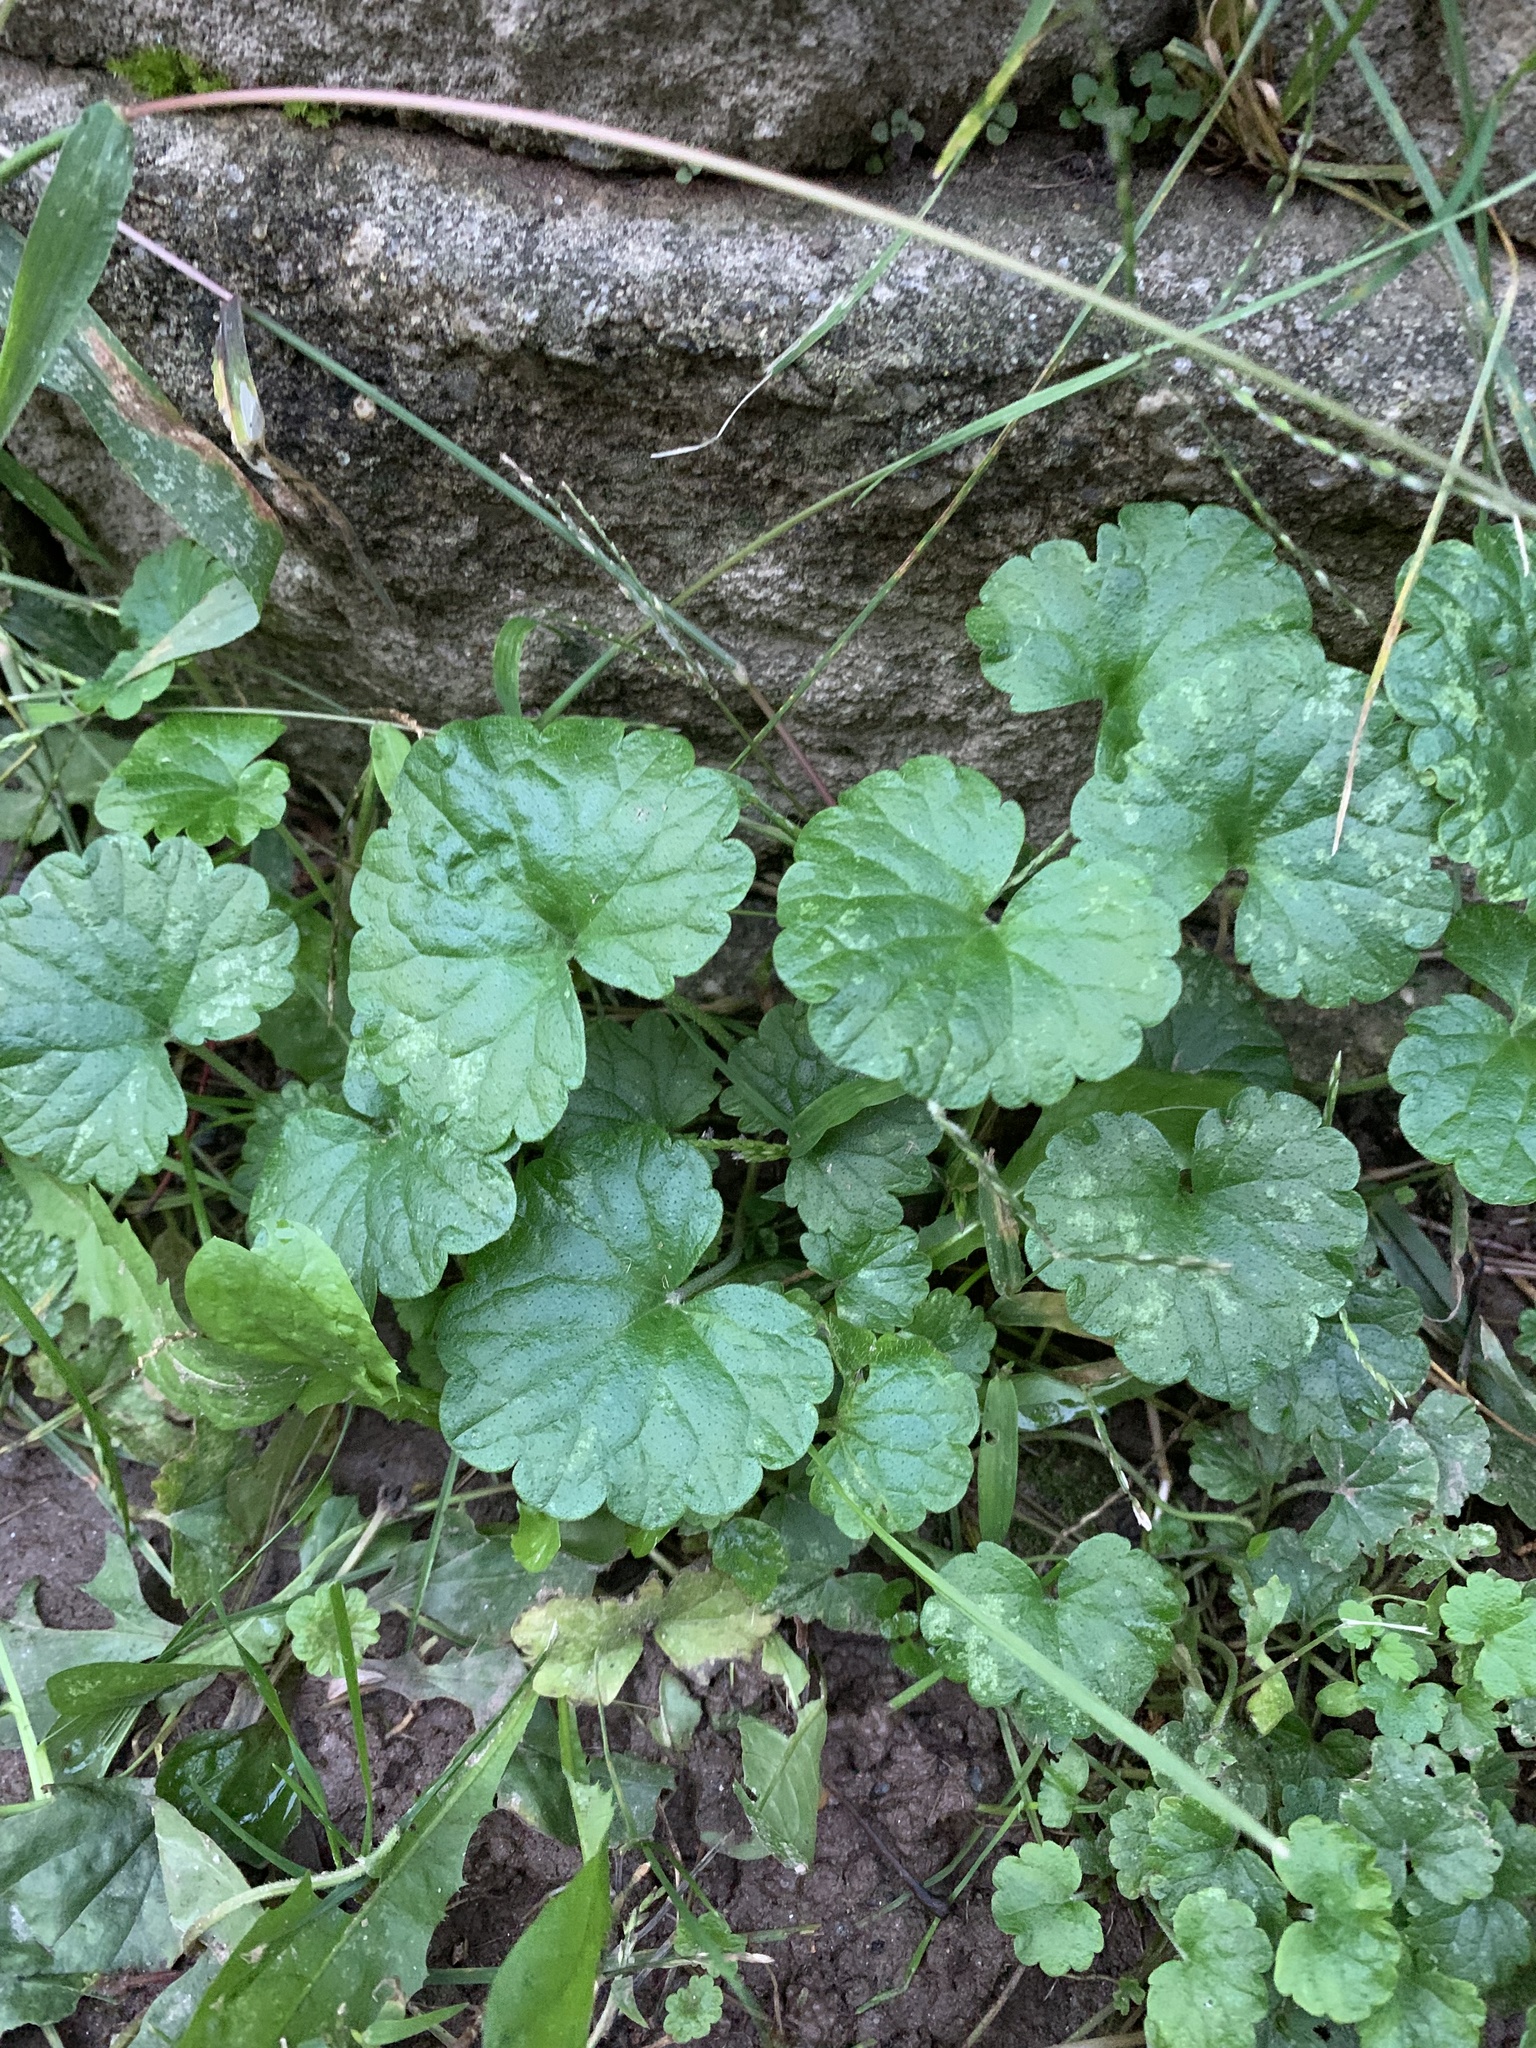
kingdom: Plantae
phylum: Tracheophyta
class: Magnoliopsida
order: Lamiales
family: Lamiaceae
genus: Glechoma
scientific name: Glechoma hederacea
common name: Ground ivy
